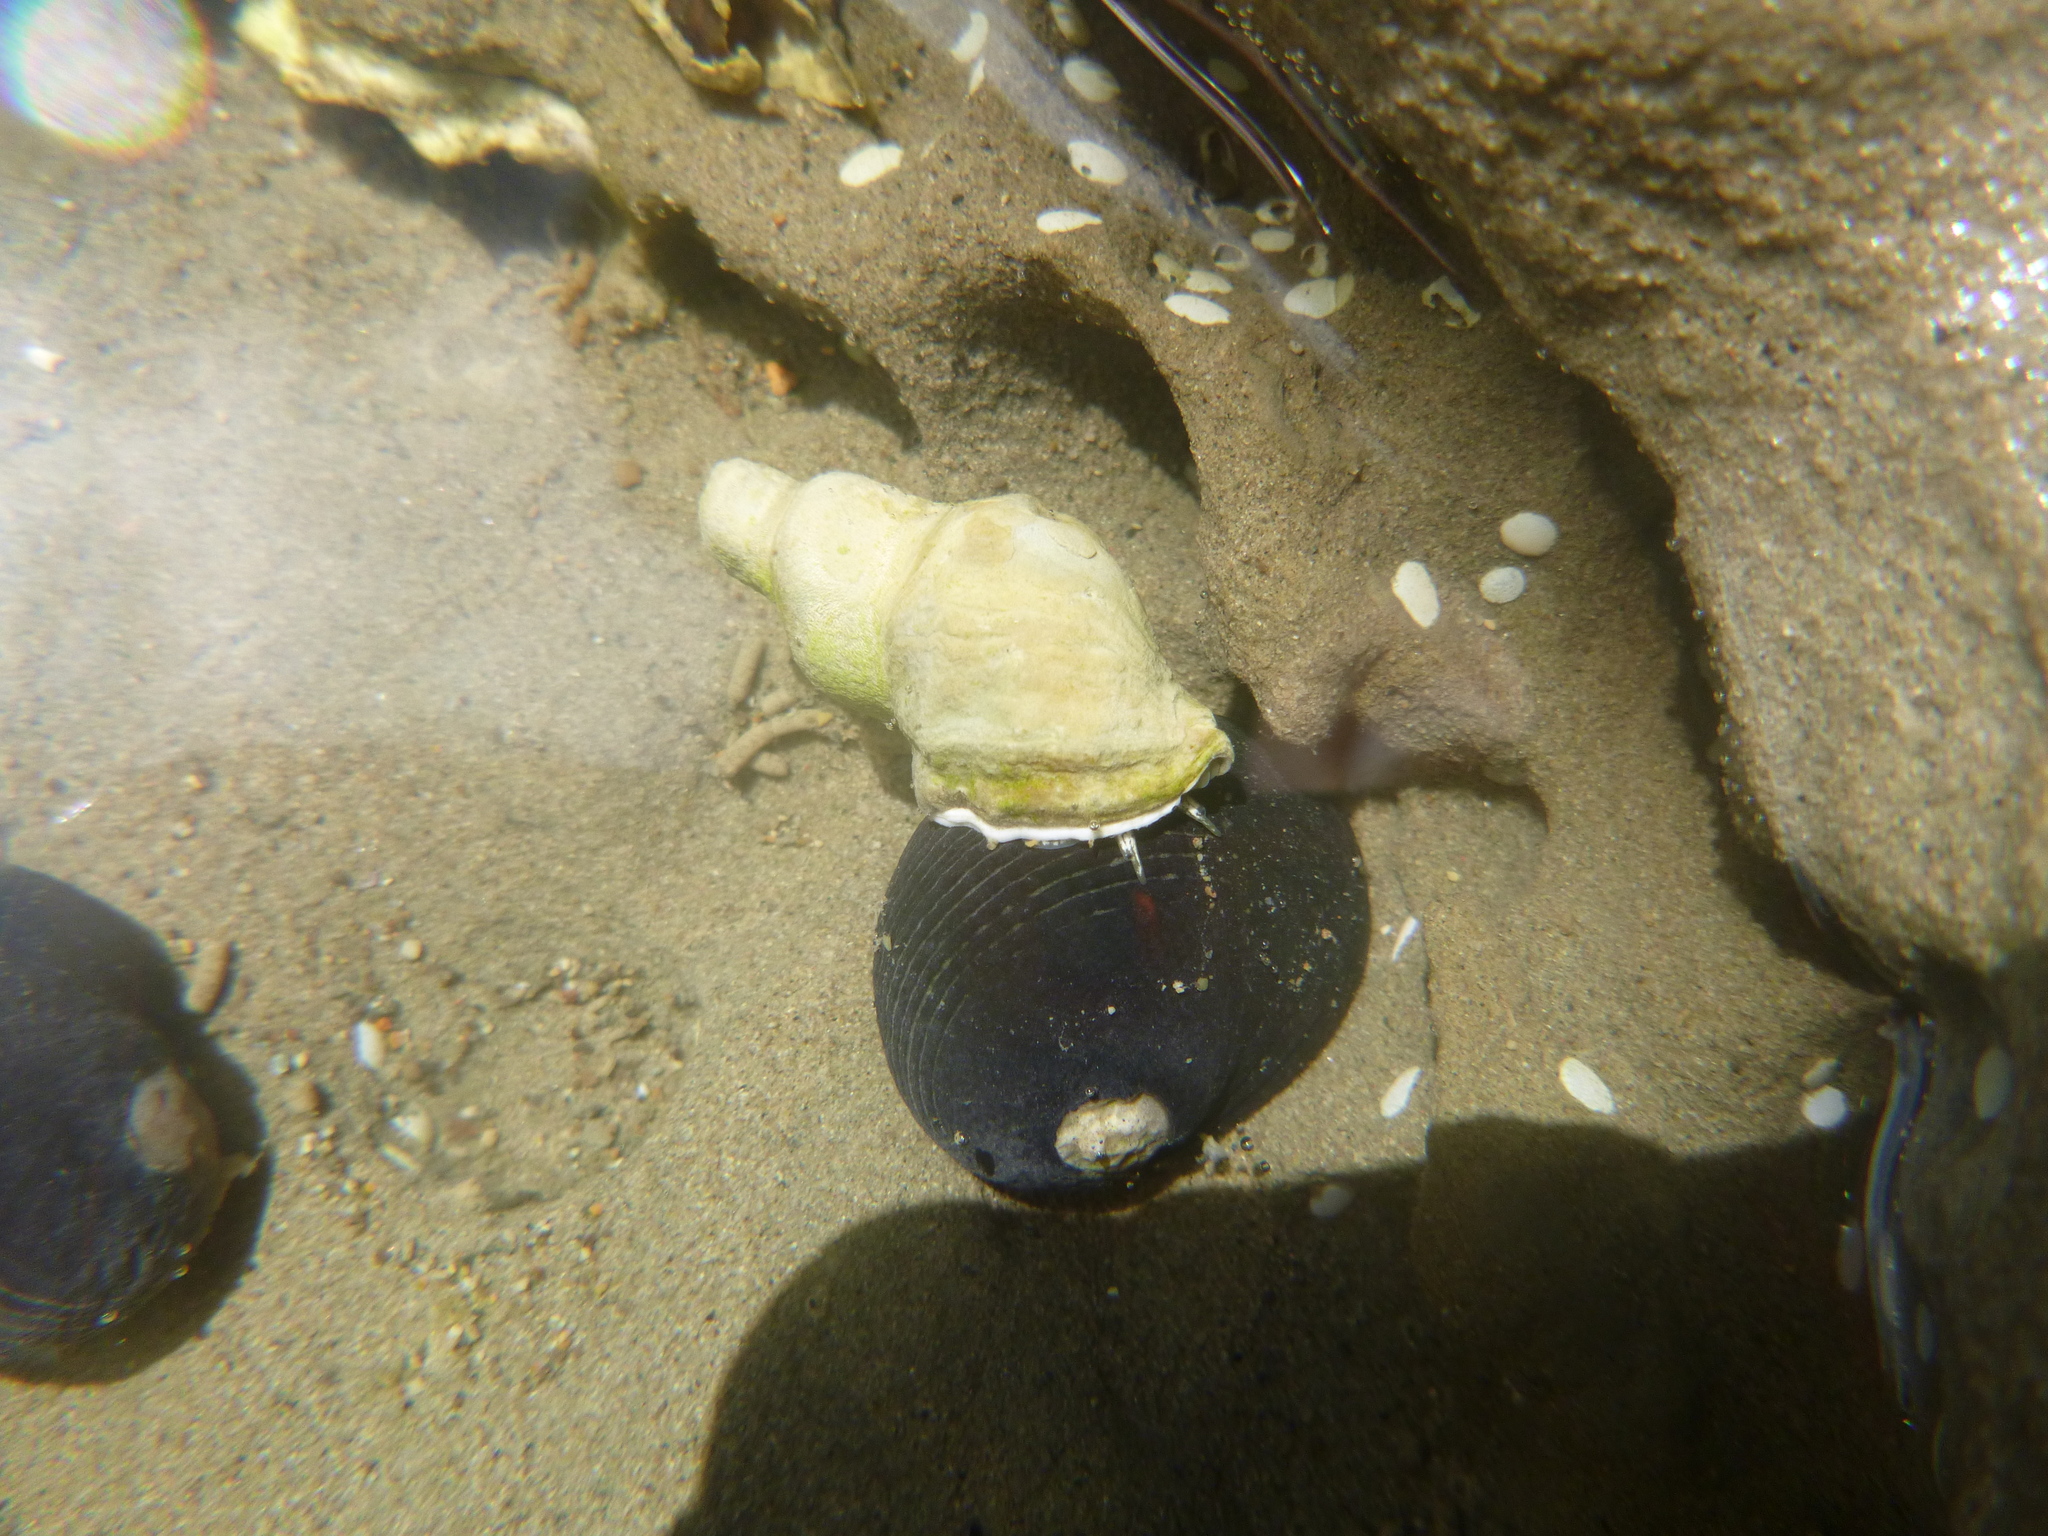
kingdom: Animalia
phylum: Mollusca
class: Gastropoda
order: Neogastropoda
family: Muricidae
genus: Haustrum
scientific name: Haustrum scobina
